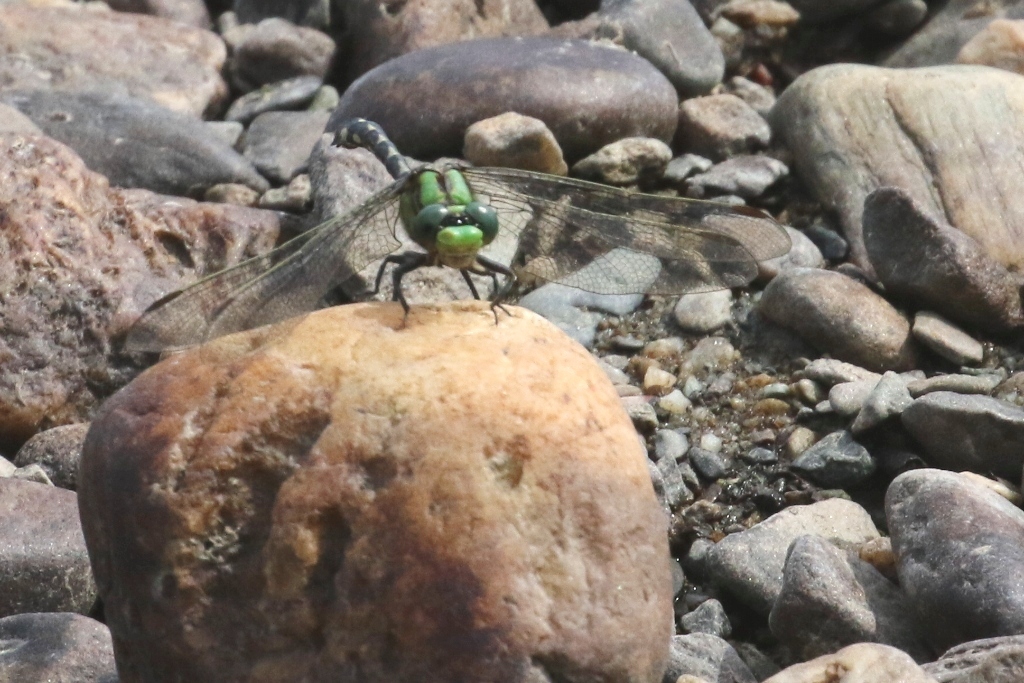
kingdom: Animalia
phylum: Arthropoda
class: Insecta
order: Odonata
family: Gomphidae
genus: Ophiogomphus
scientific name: Ophiogomphus carolus
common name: Riffle snaketail
